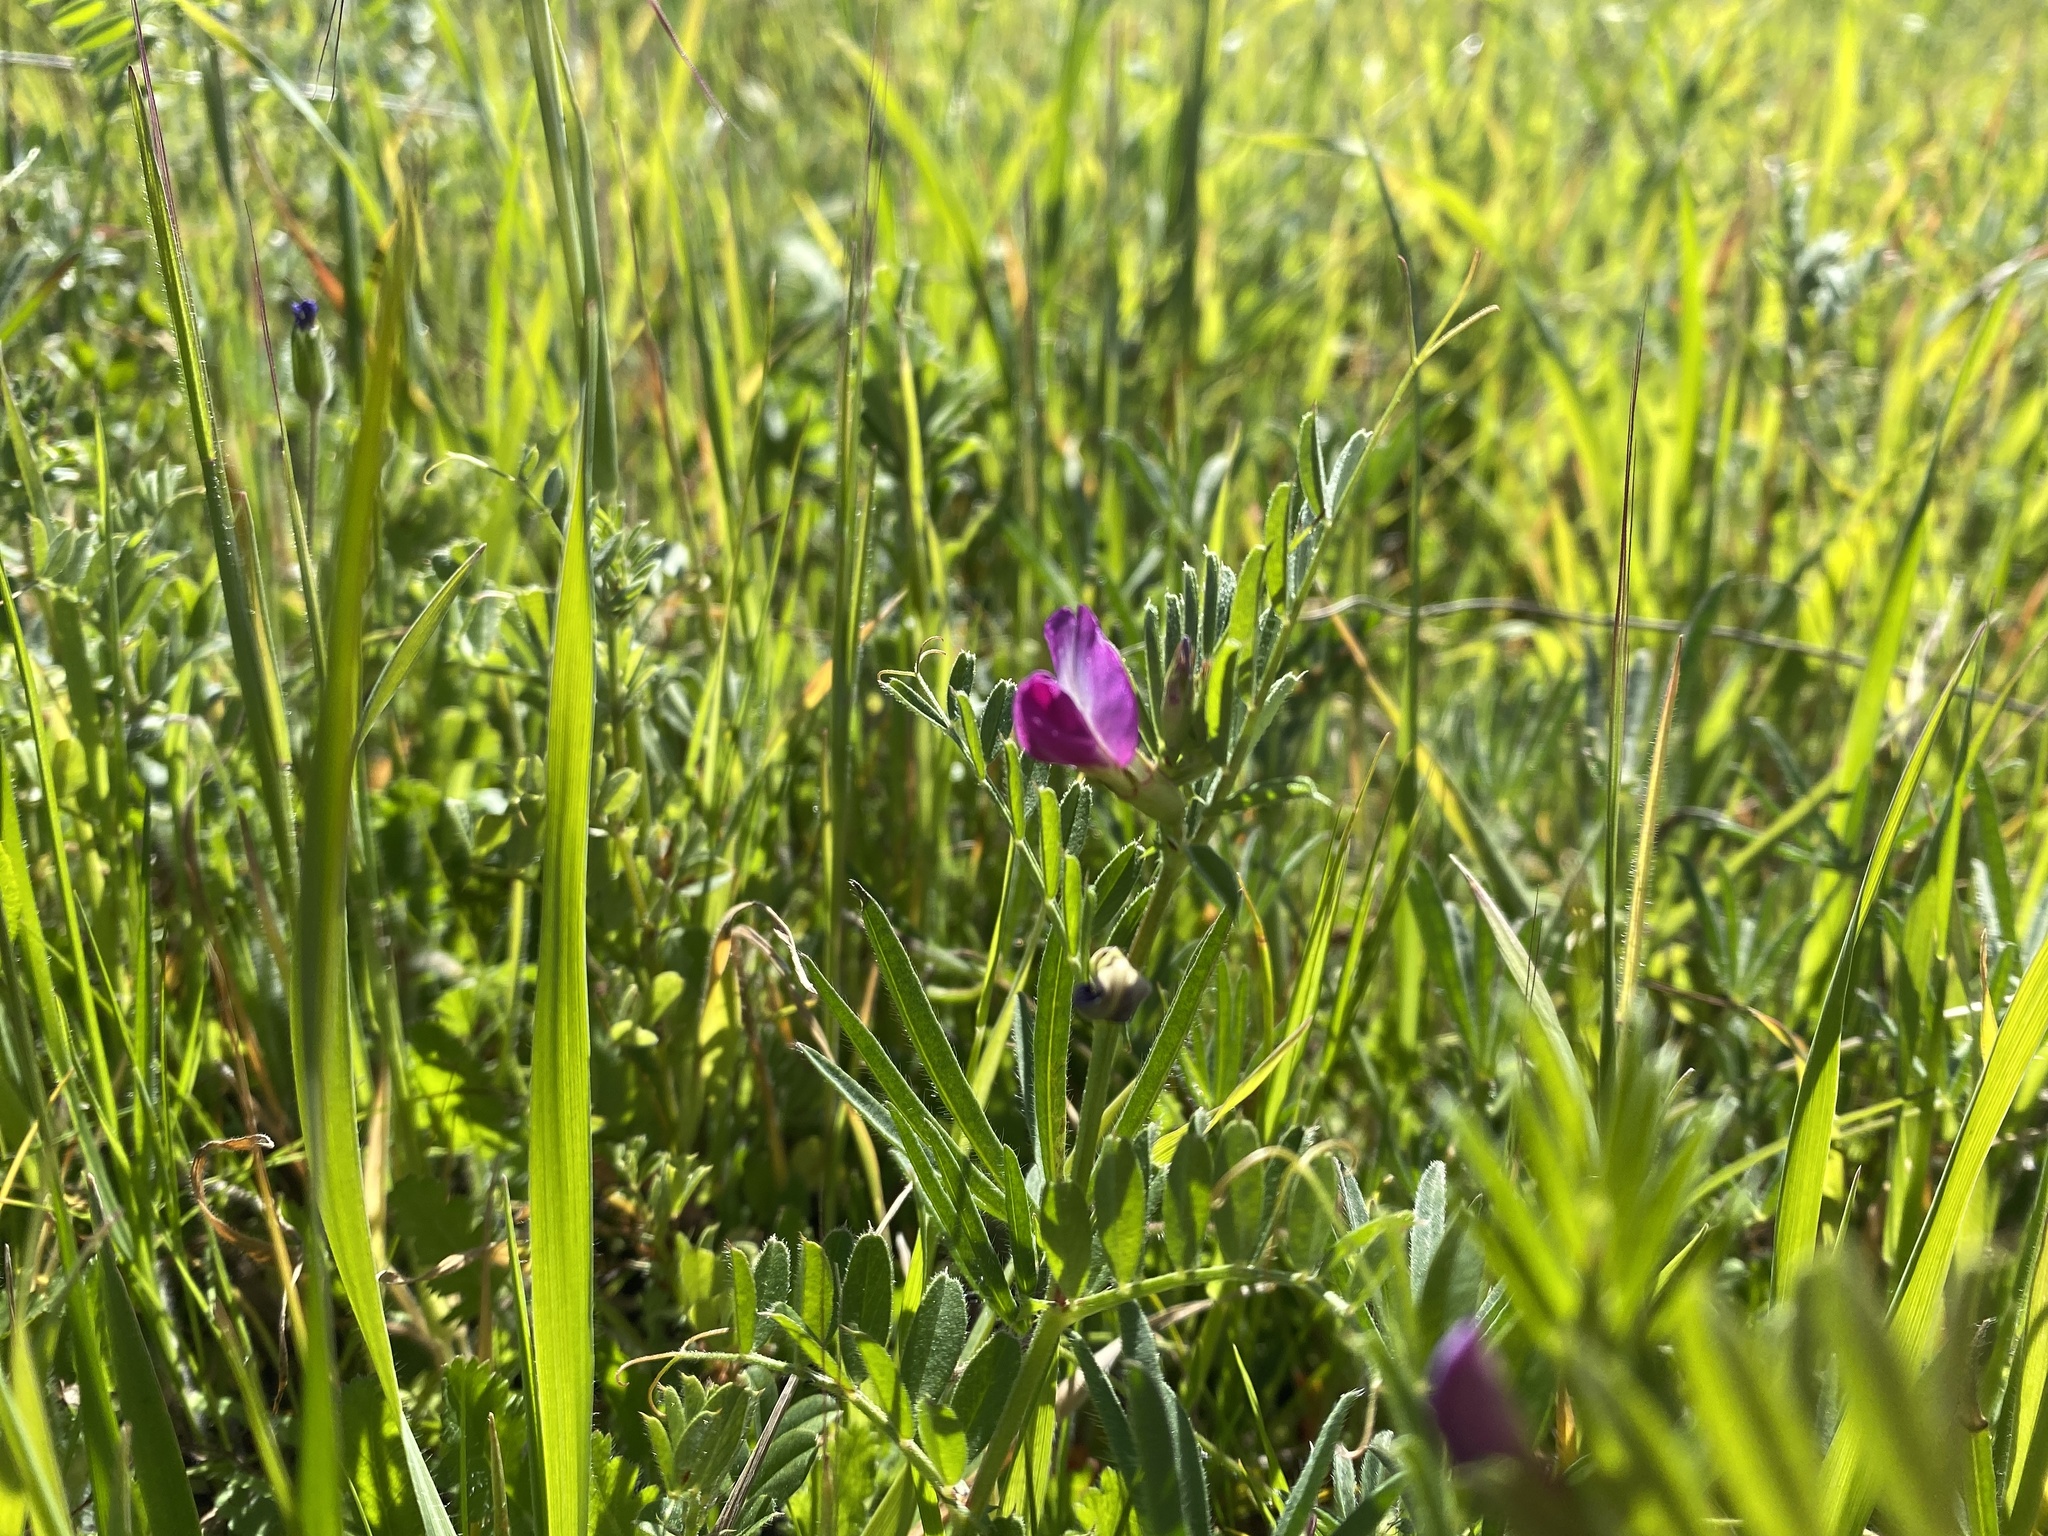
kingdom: Plantae
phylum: Tracheophyta
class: Magnoliopsida
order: Fabales
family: Fabaceae
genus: Vicia
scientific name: Vicia sativa
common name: Garden vetch
